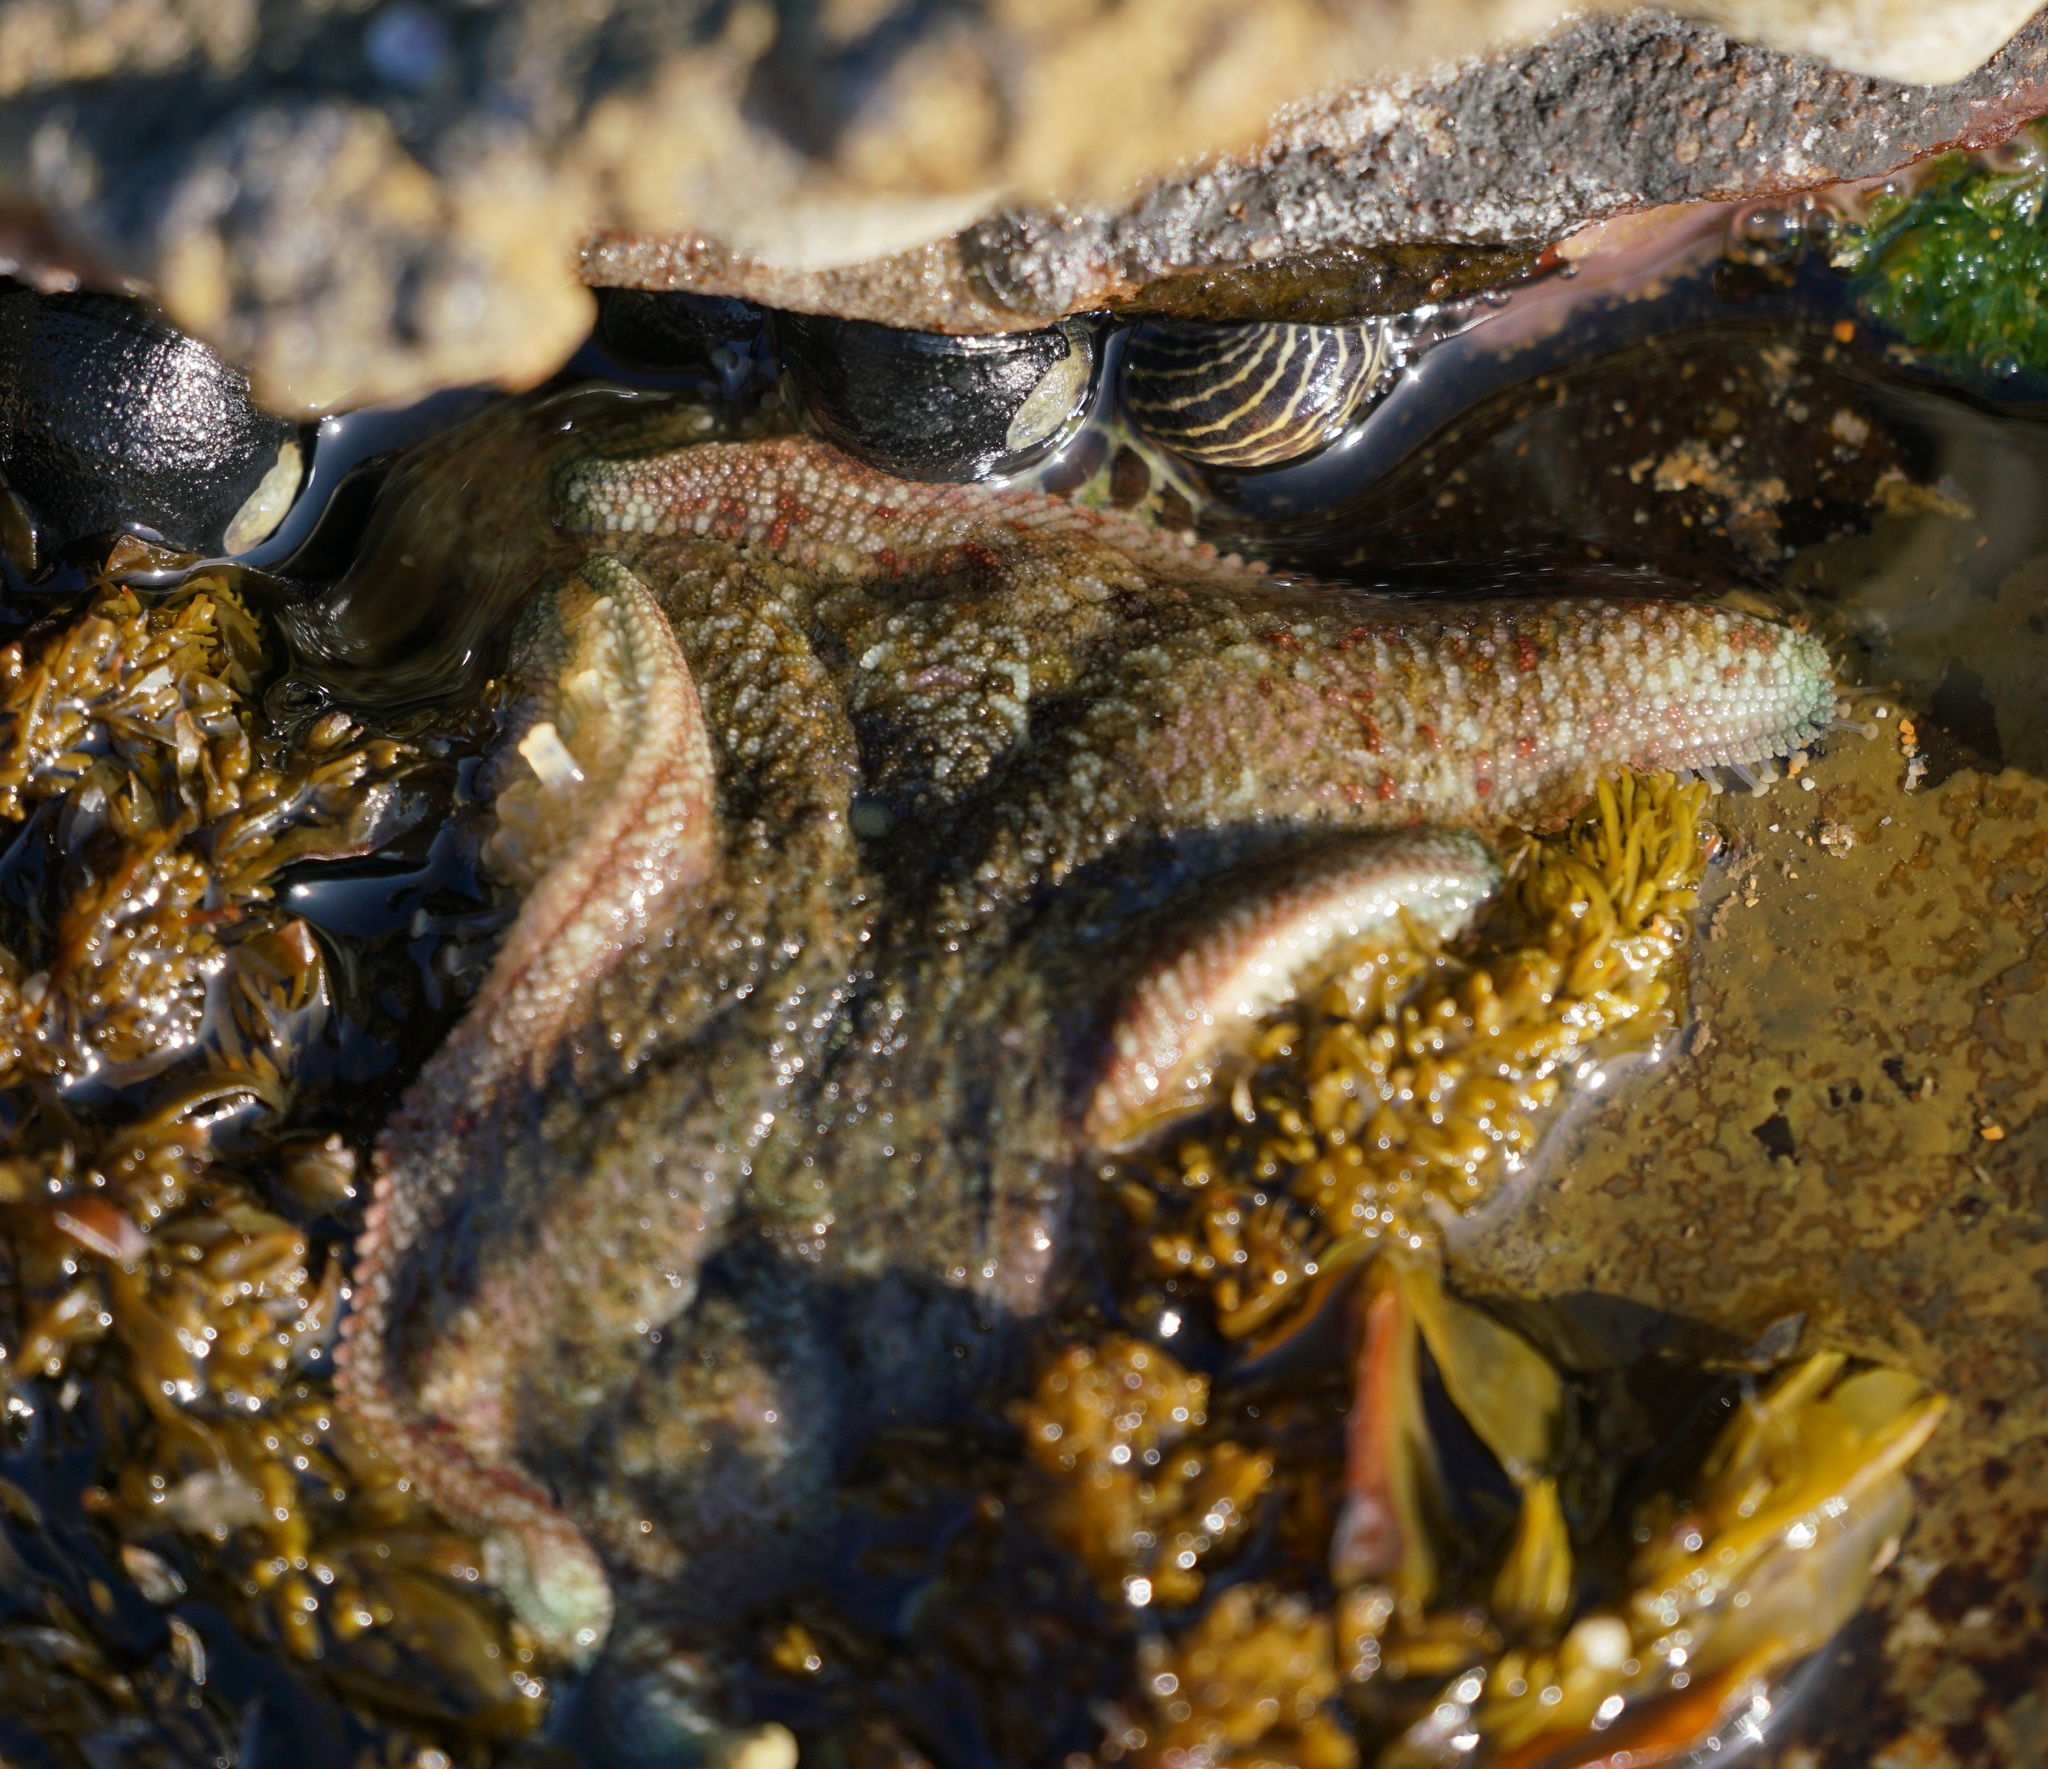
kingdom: Animalia
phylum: Echinodermata
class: Asteroidea
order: Valvatida
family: Asterinidae
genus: Meridiastra
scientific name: Meridiastra calcar
